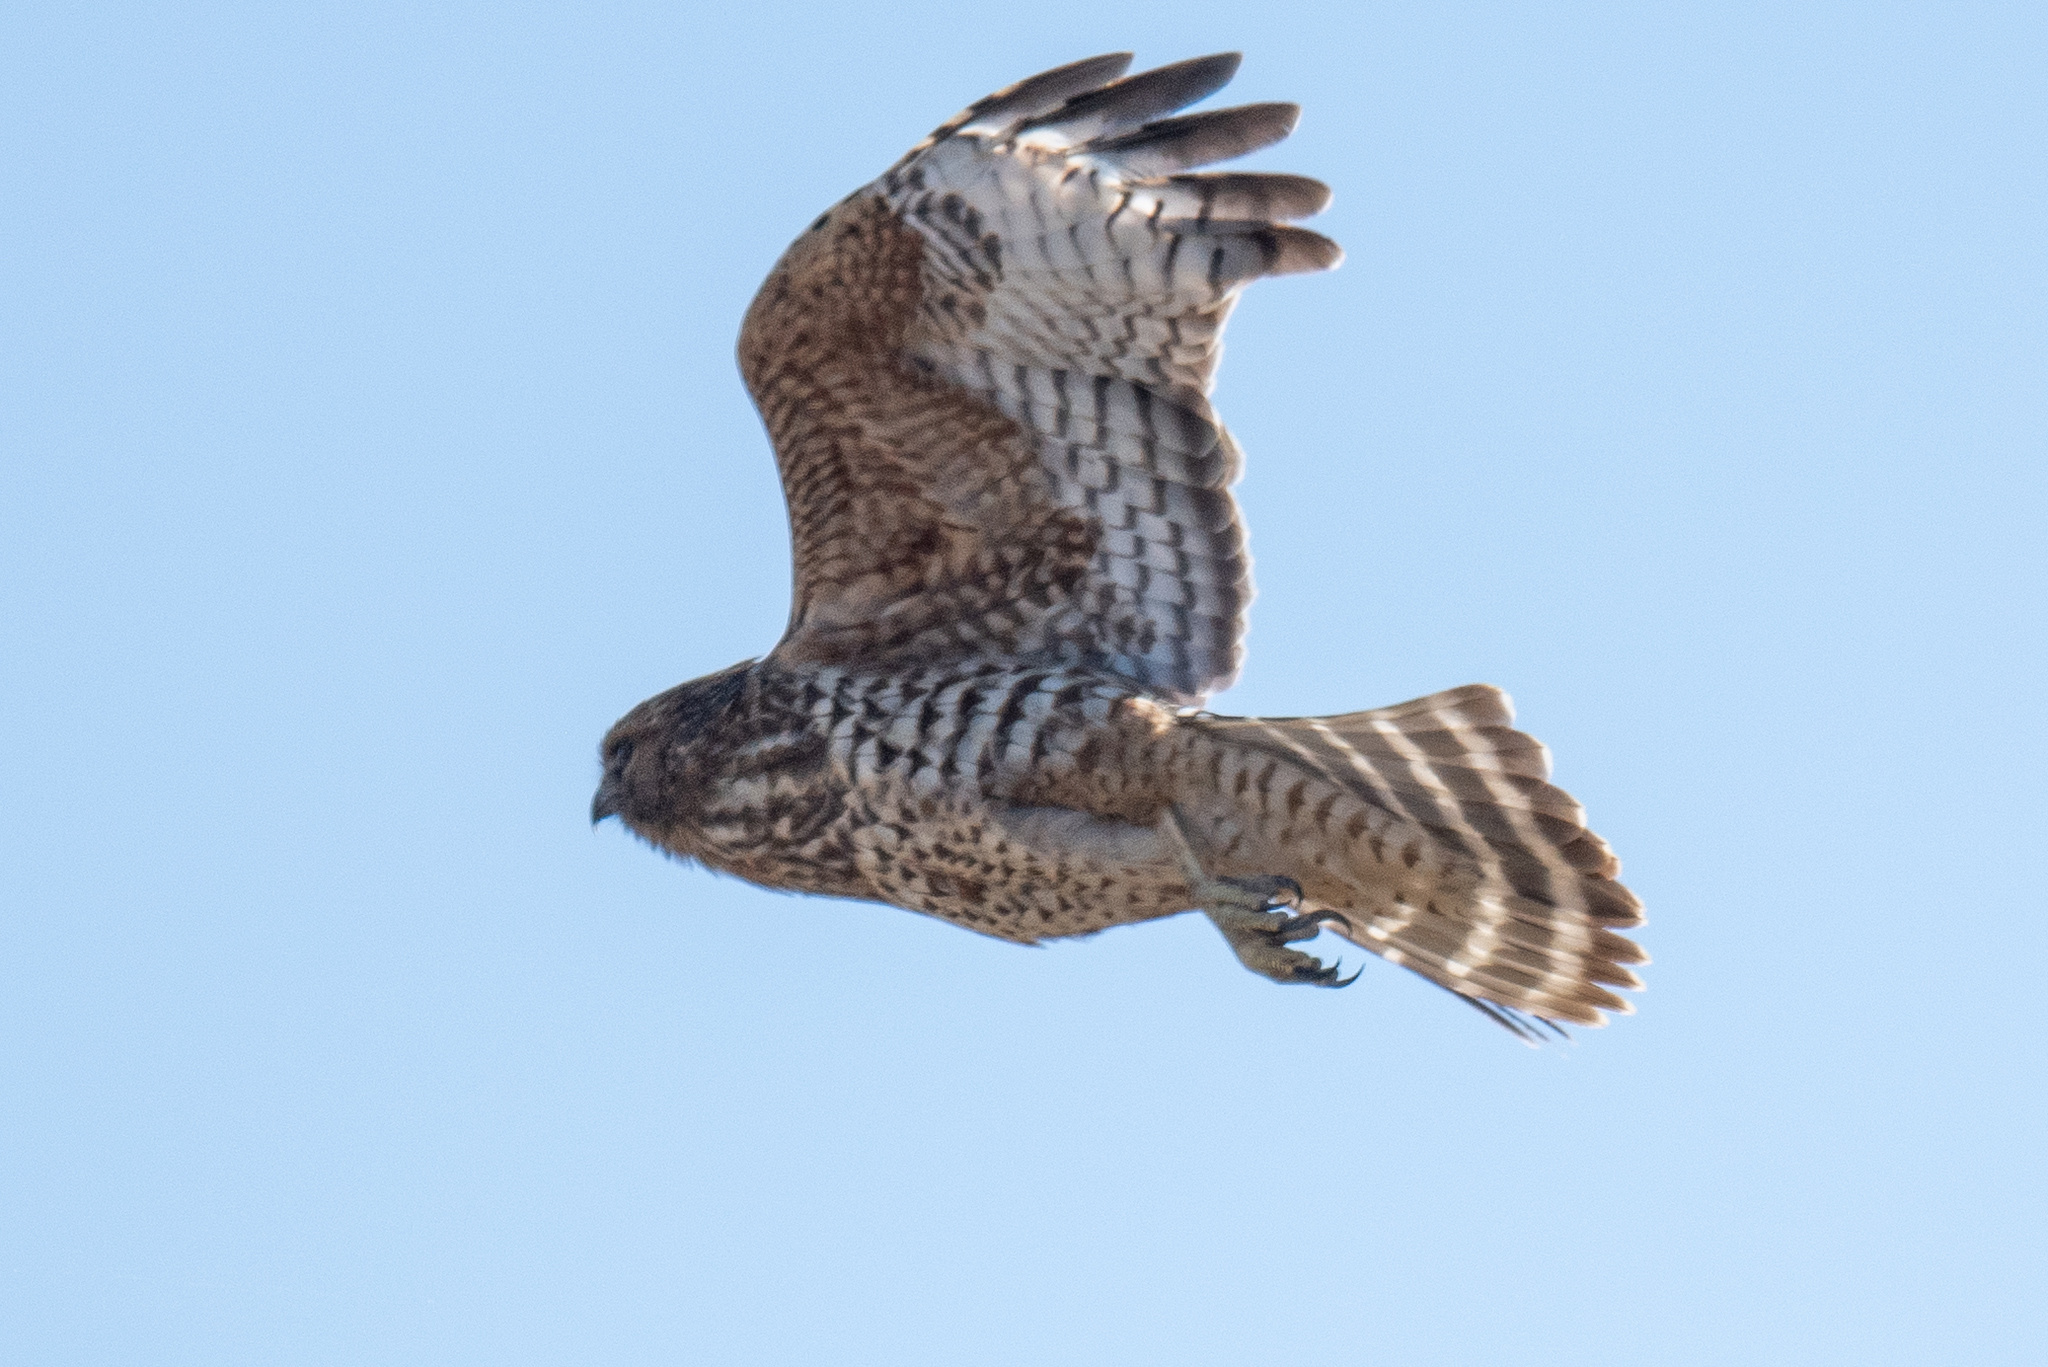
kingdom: Animalia
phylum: Chordata
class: Aves
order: Accipitriformes
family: Accipitridae
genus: Buteo
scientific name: Buteo lineatus
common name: Red-shouldered hawk
